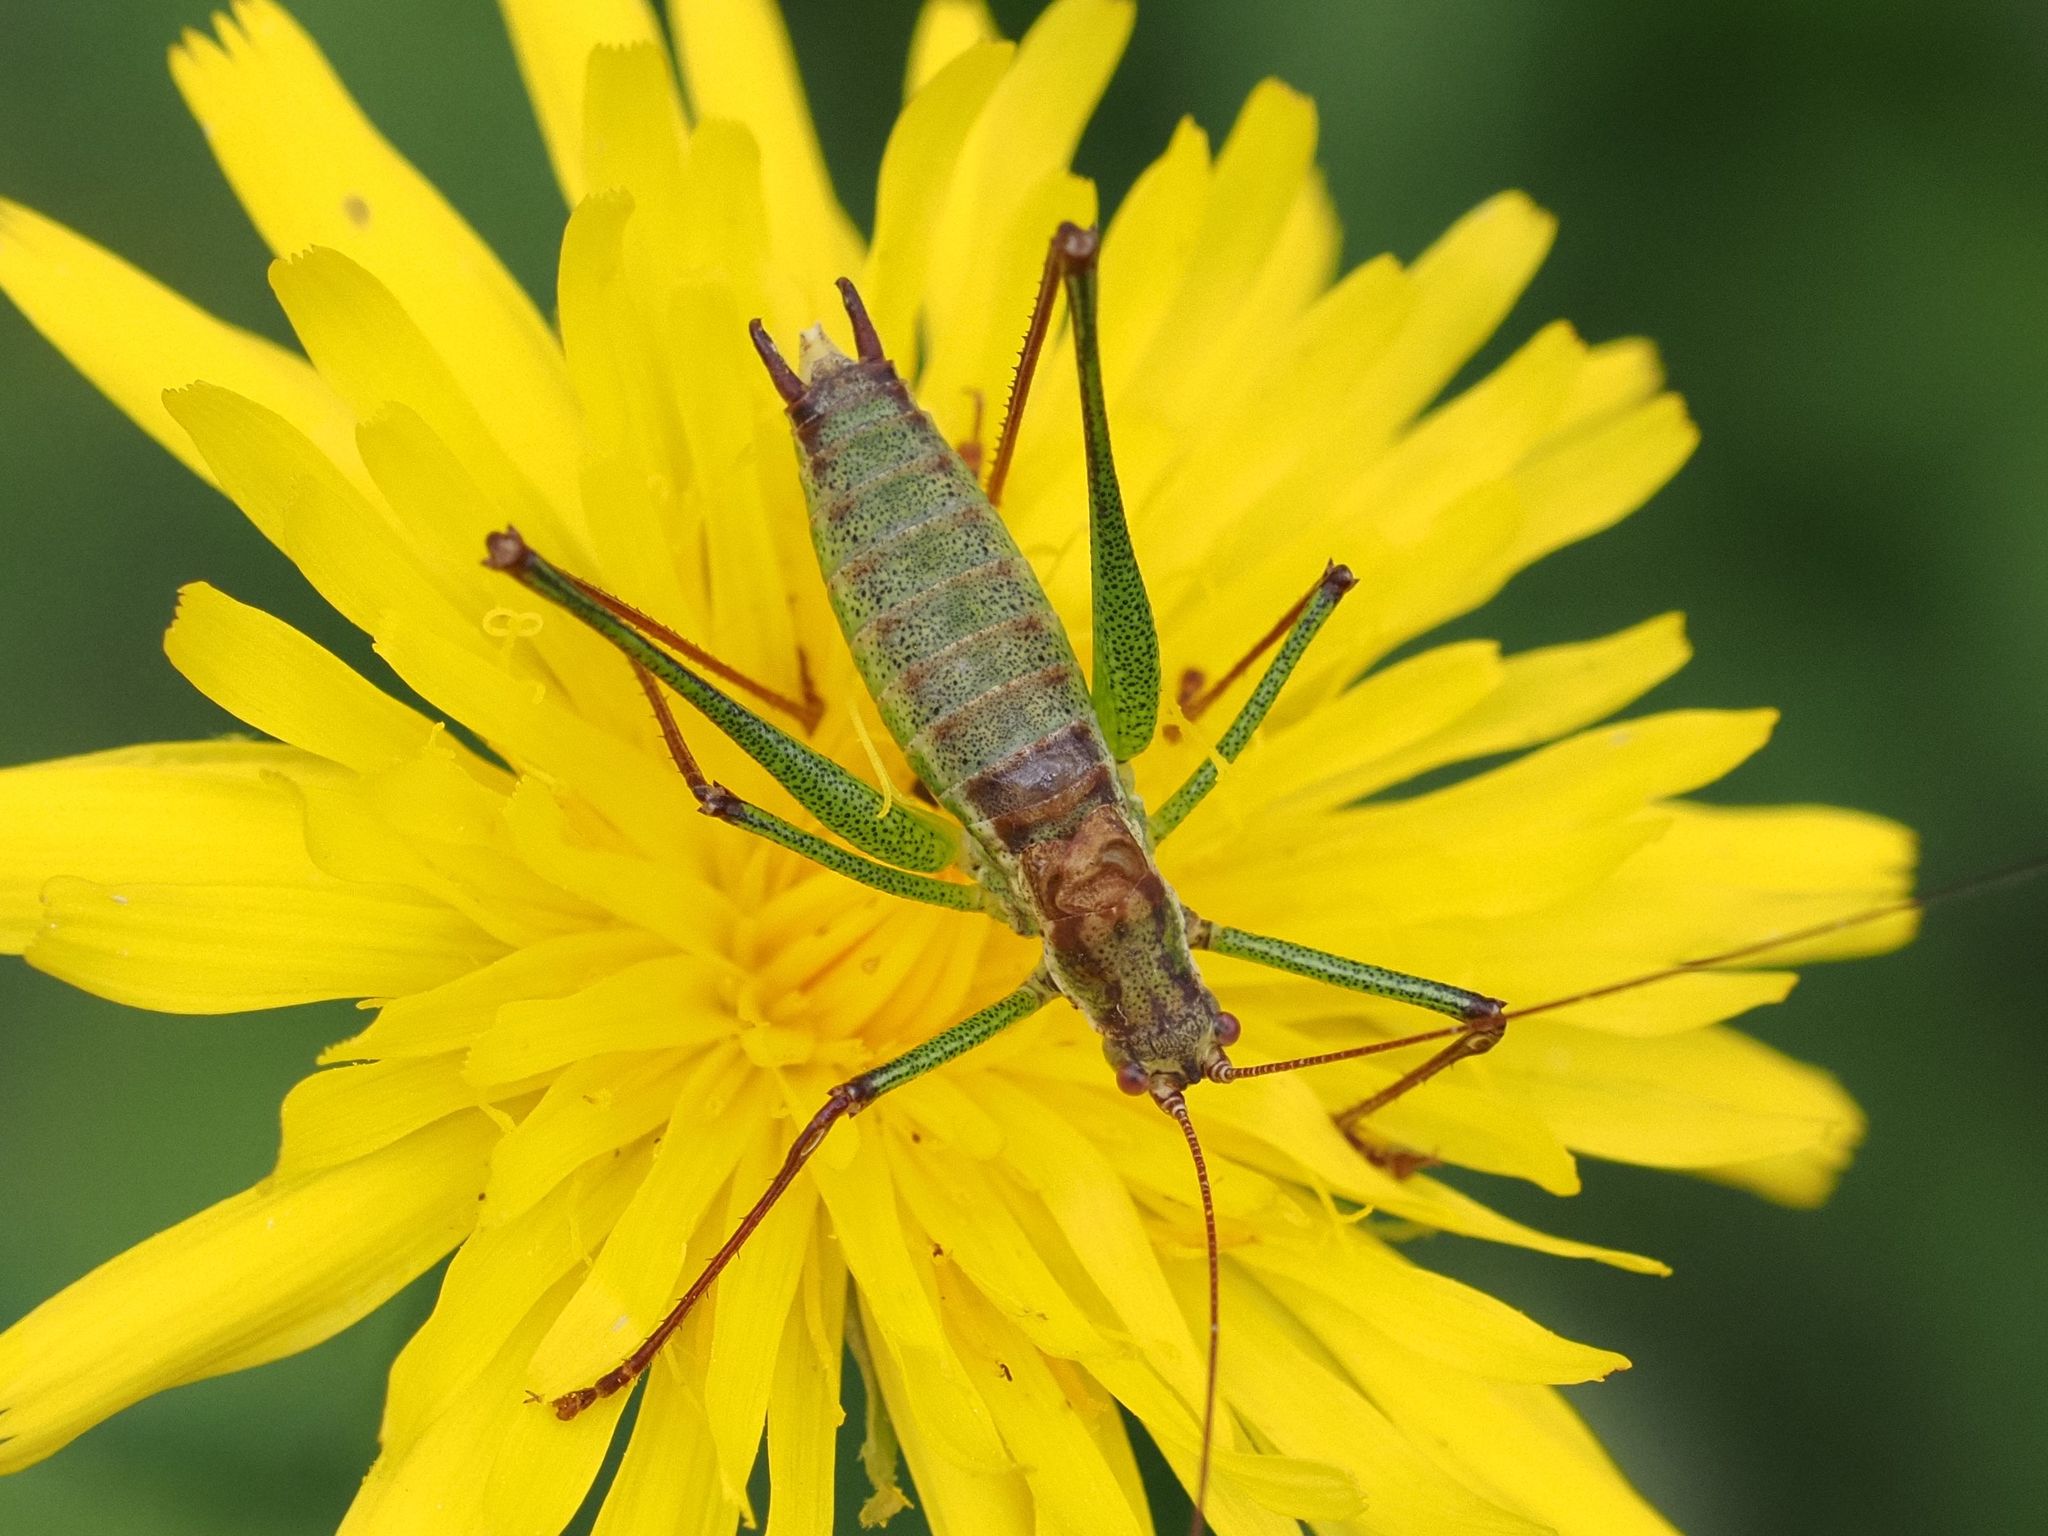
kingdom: Animalia
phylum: Arthropoda
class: Insecta
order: Orthoptera
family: Tettigoniidae
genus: Leptophyes
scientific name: Leptophyes albovittata
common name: Striped bush-cricket
